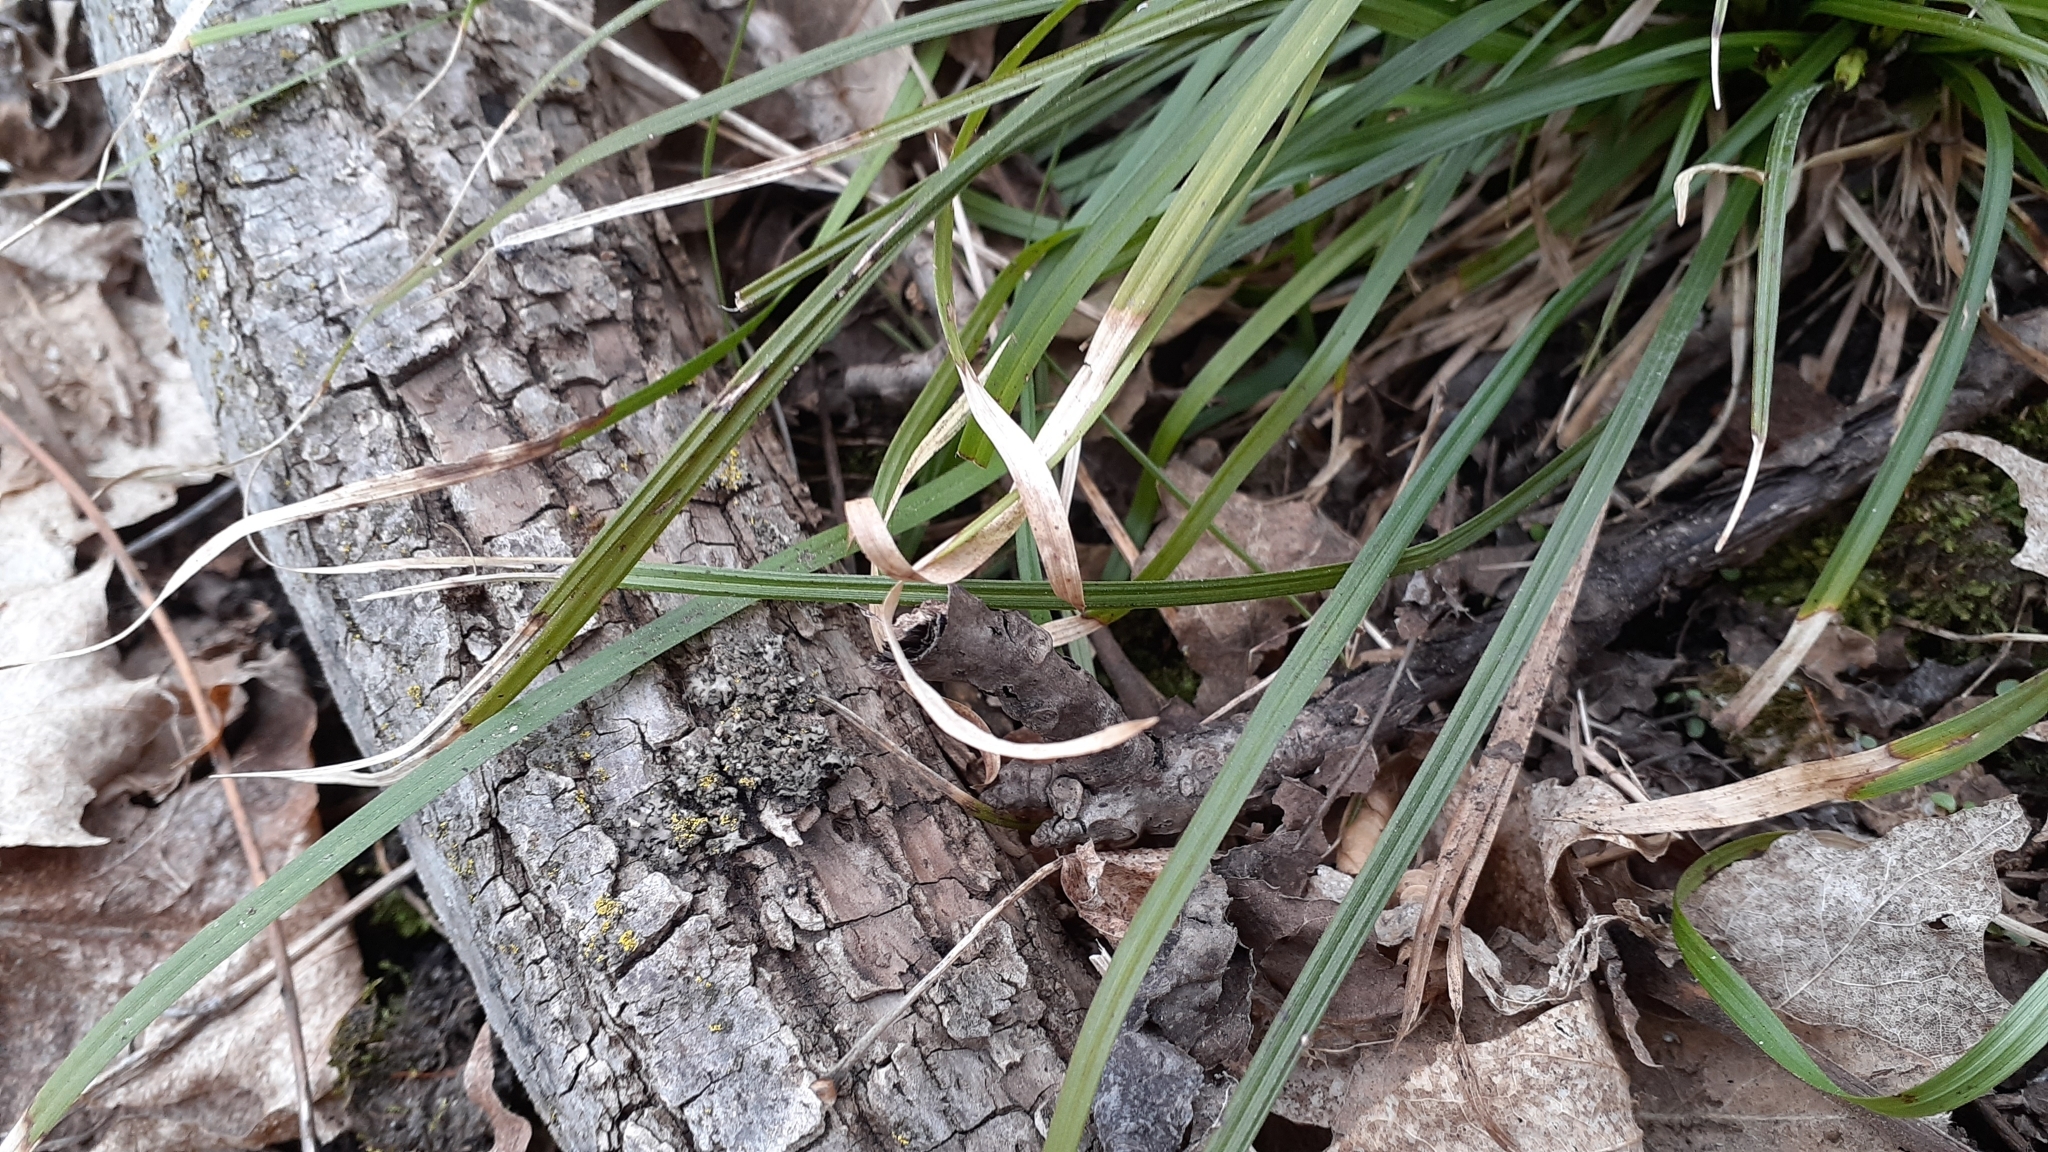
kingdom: Plantae
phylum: Tracheophyta
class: Liliopsida
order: Poales
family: Cyperaceae
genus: Carex
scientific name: Carex pedunculata
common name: Pedunculate sedge
